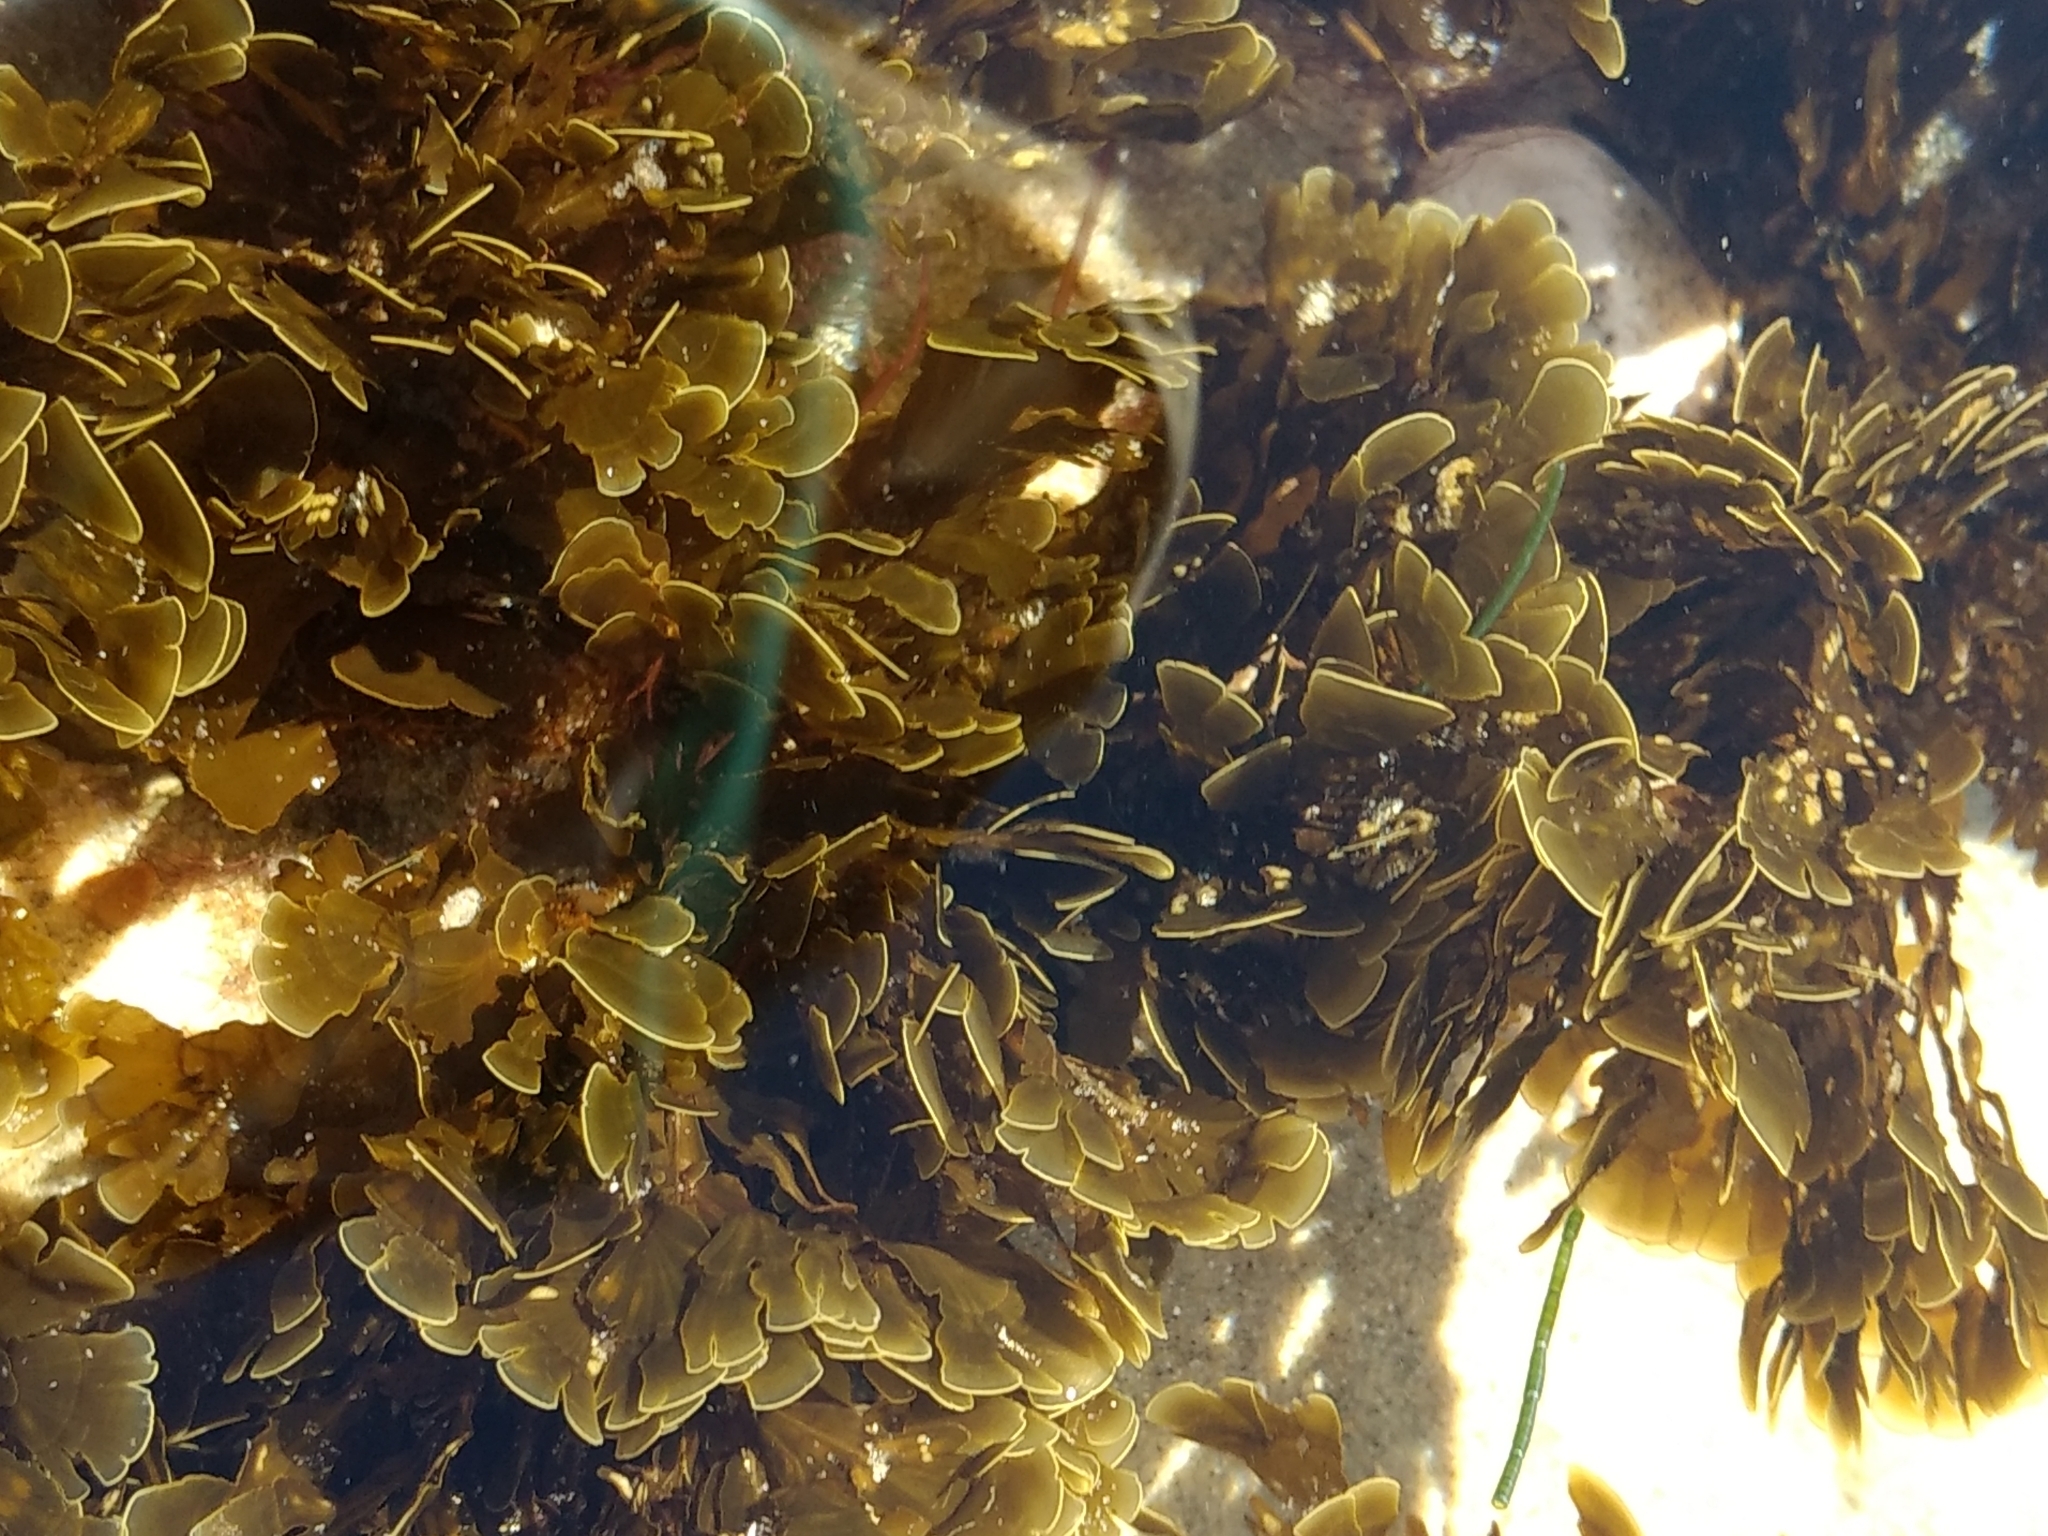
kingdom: Chromista
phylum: Ochrophyta
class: Phaeophyceae
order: Dictyotales
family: Dictyotaceae
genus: Zonaria
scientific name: Zonaria farlowii
